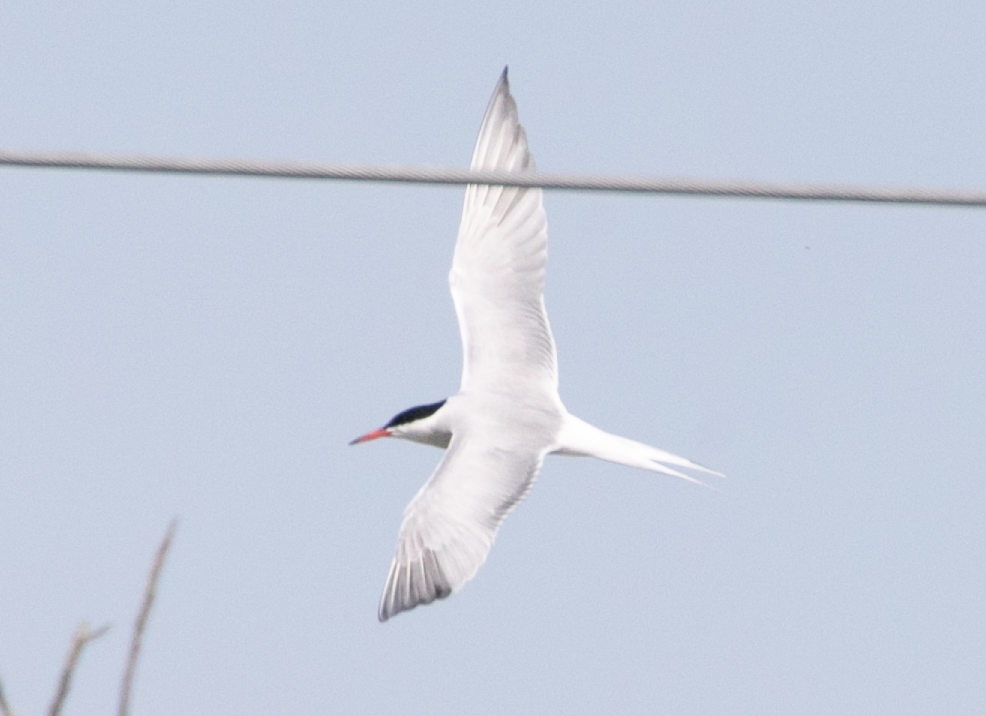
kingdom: Animalia
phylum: Chordata
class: Aves
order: Charadriiformes
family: Laridae
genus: Sterna
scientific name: Sterna hirundo
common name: Common tern
